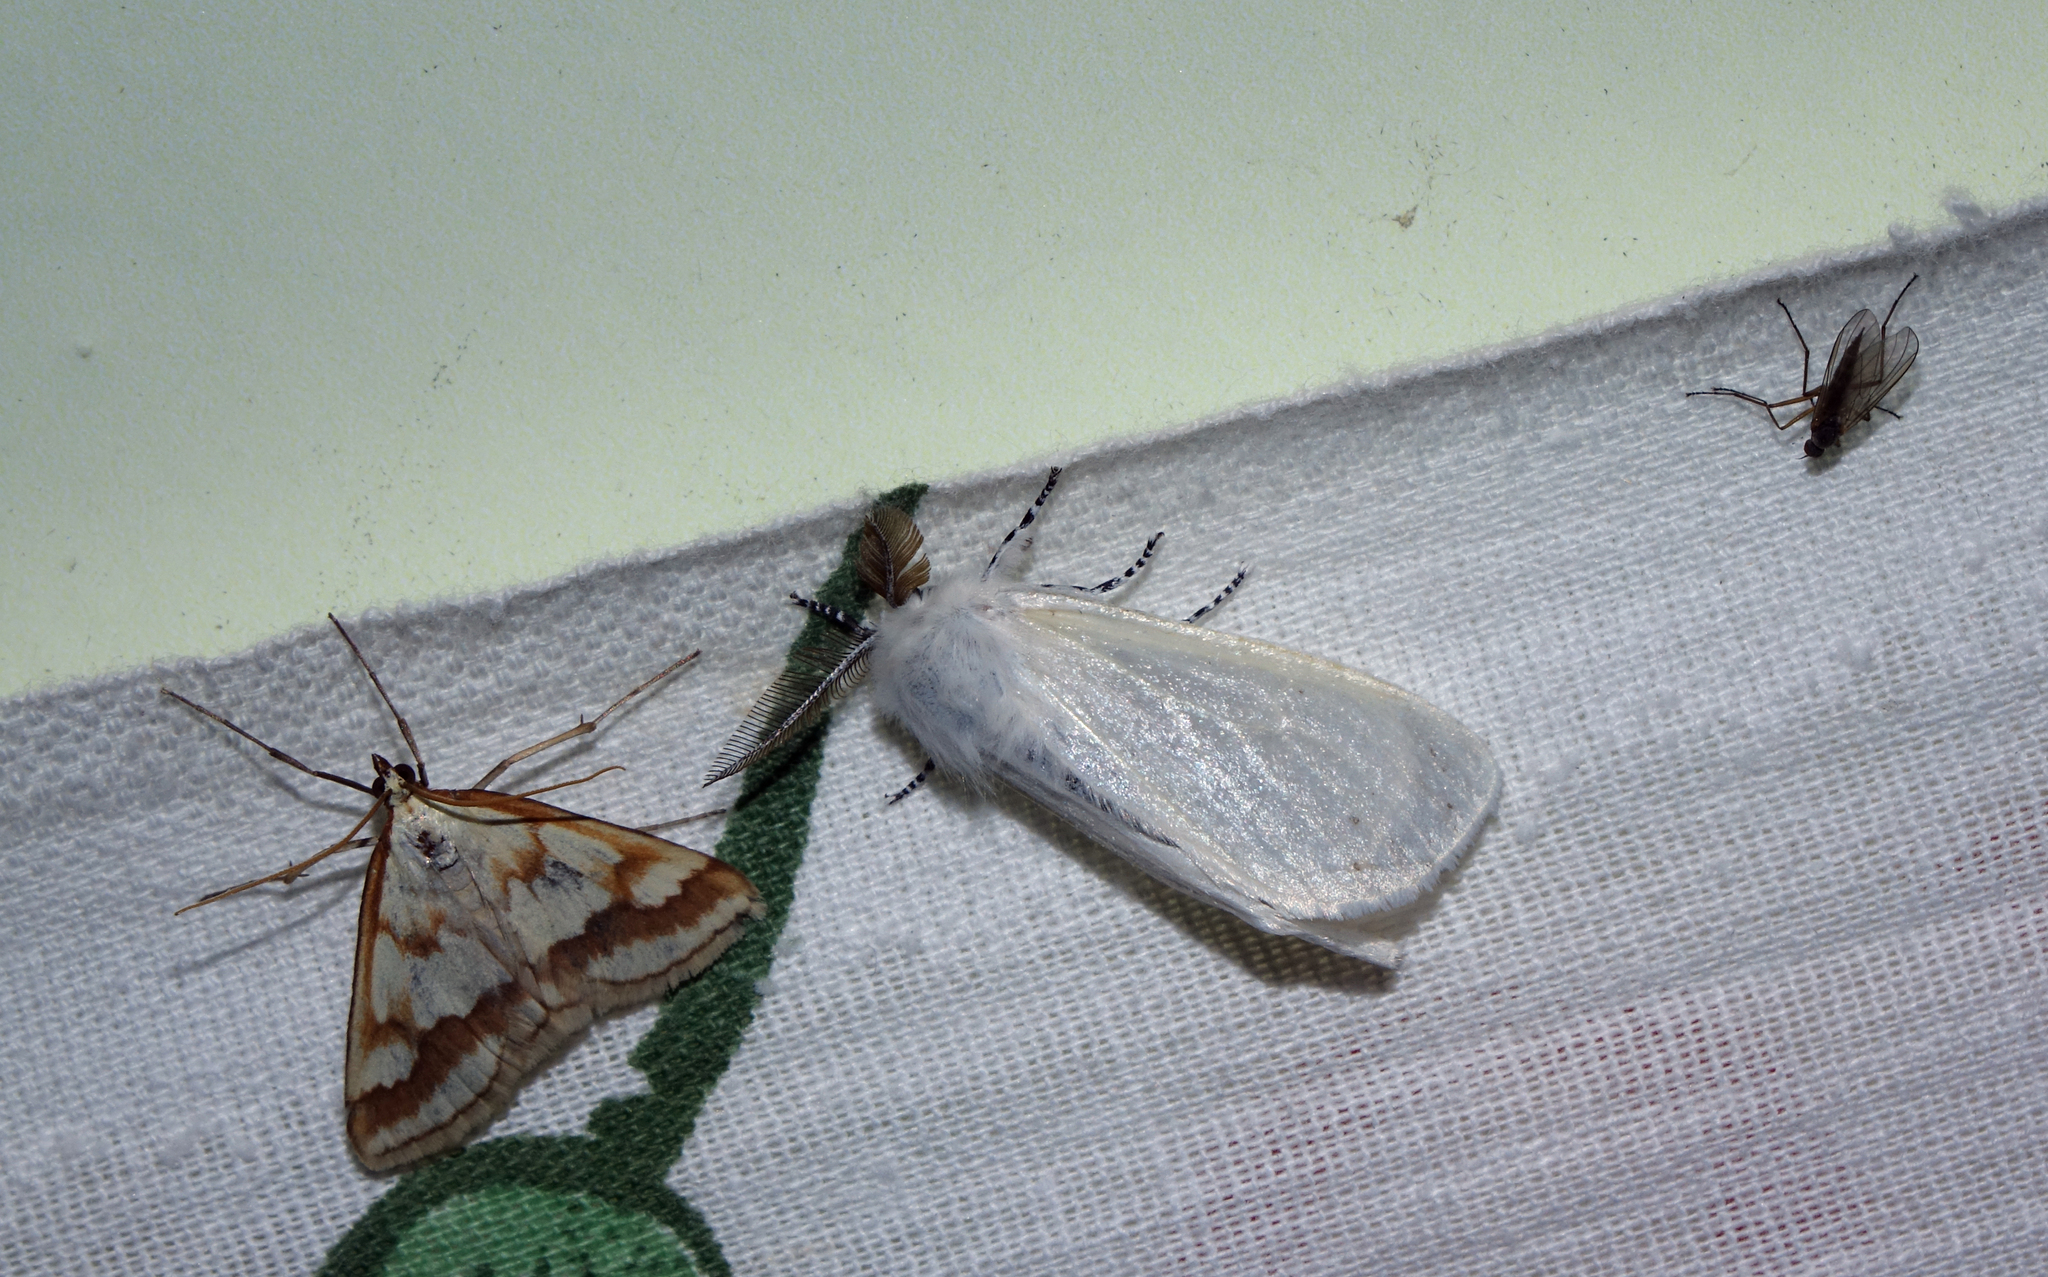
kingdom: Animalia
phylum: Arthropoda
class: Insecta
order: Lepidoptera
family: Erebidae
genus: Leucoma
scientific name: Leucoma salicis
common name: White satin moth
